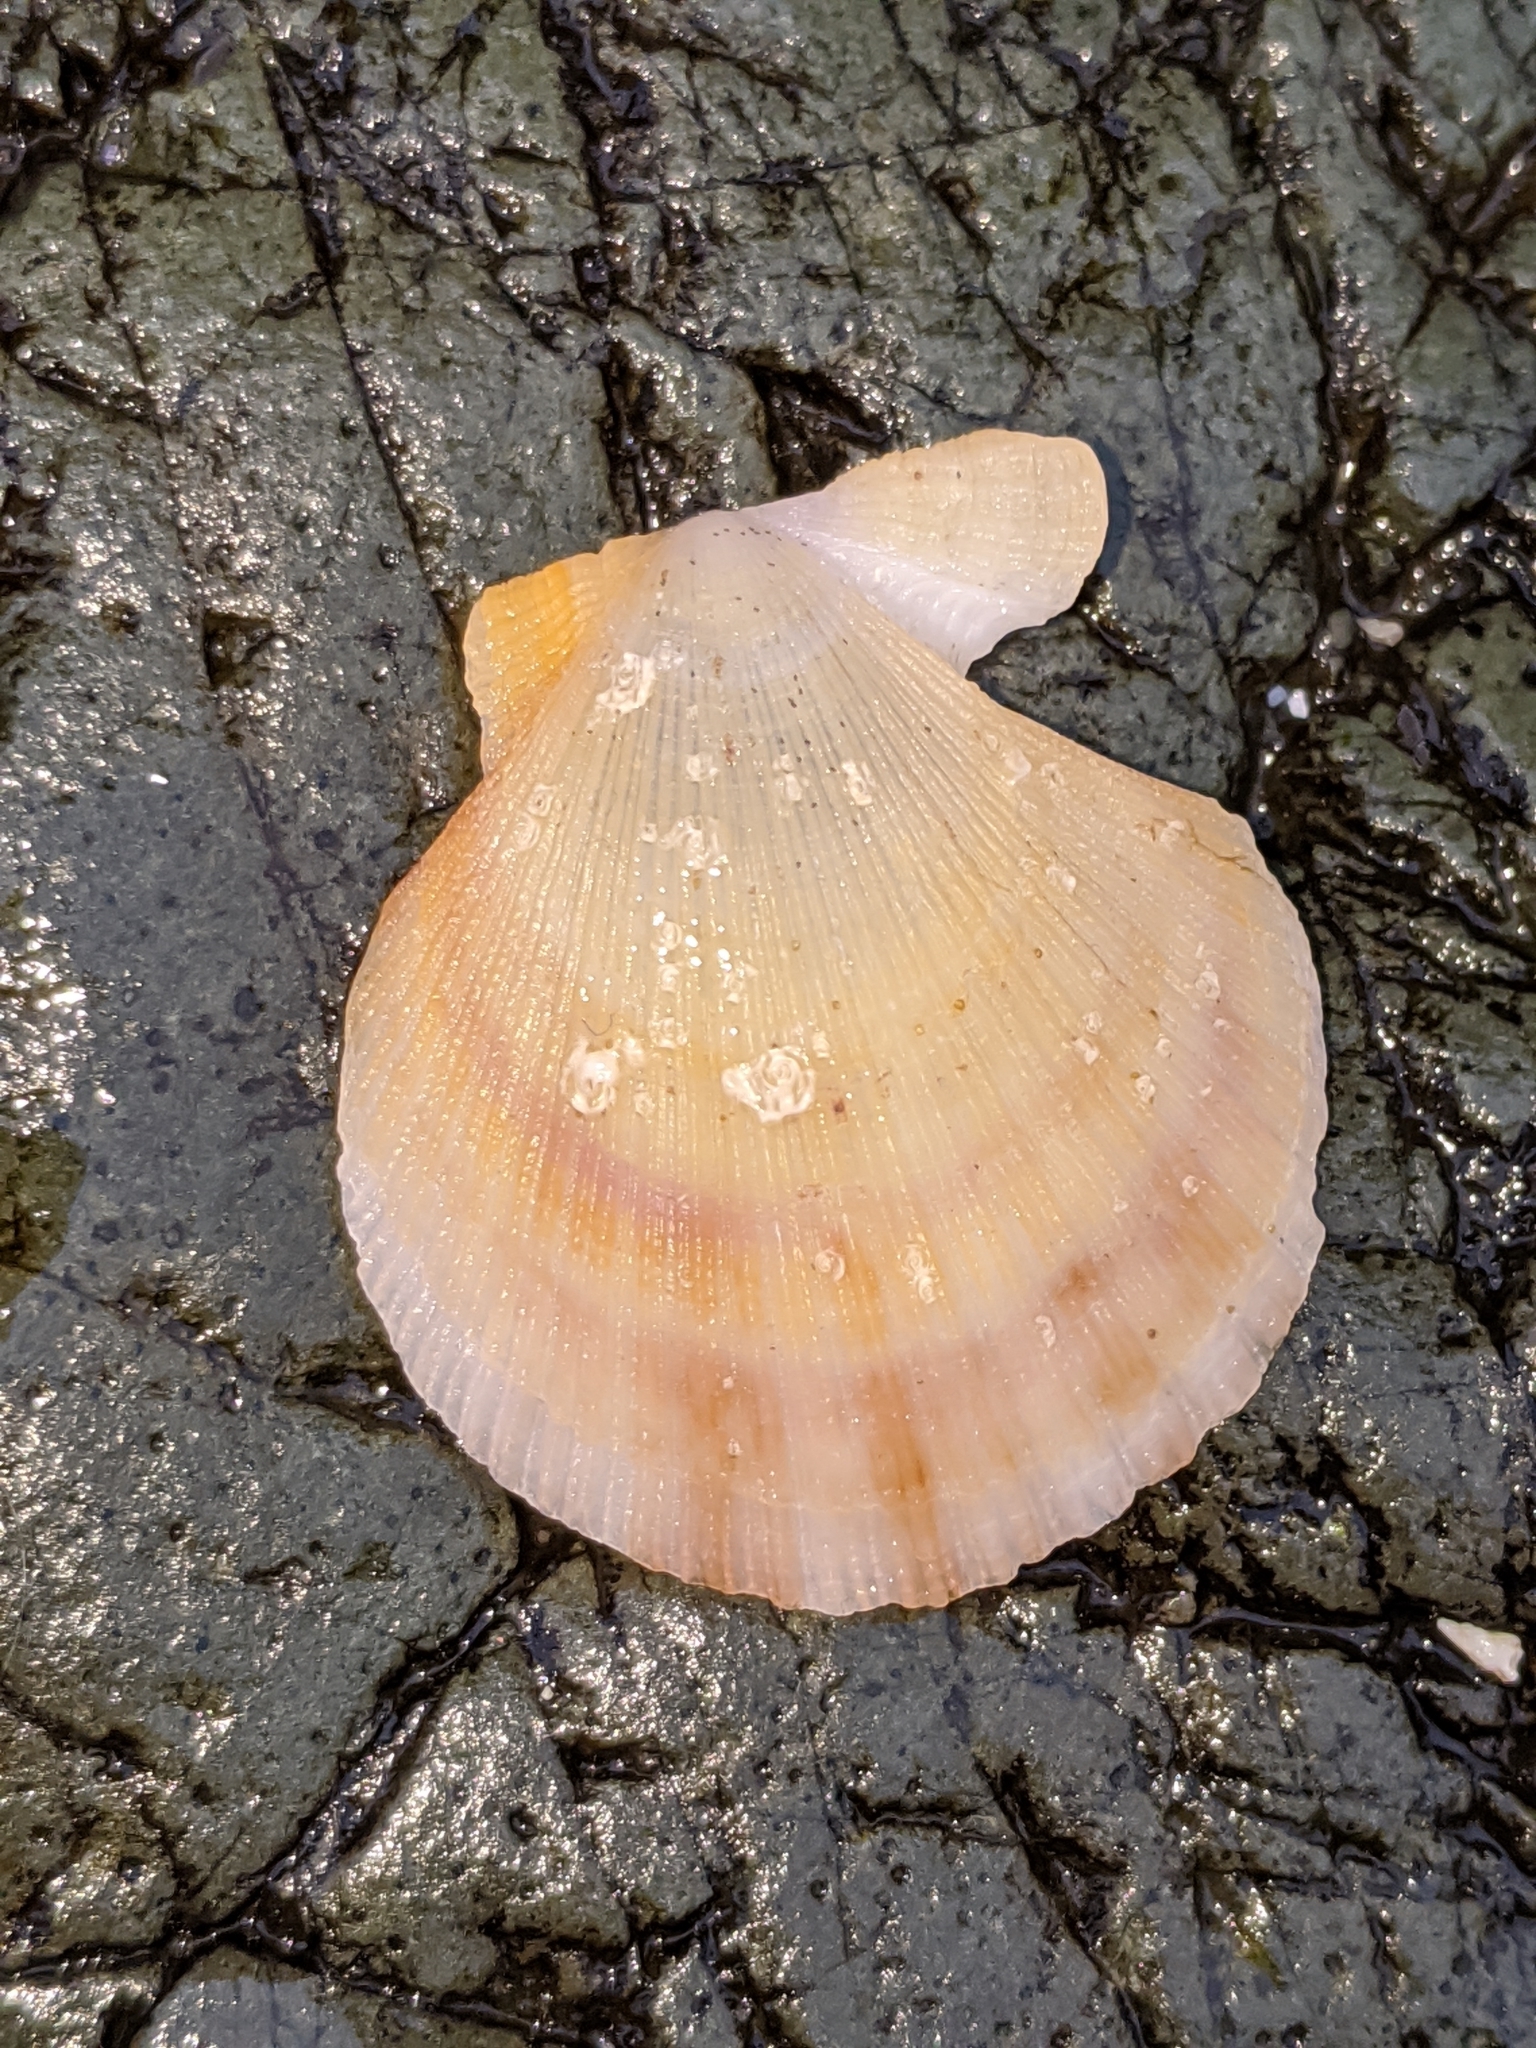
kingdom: Animalia
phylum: Mollusca
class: Bivalvia
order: Pectinida
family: Pectinidae
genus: Crassadoma
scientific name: Crassadoma gigantea
